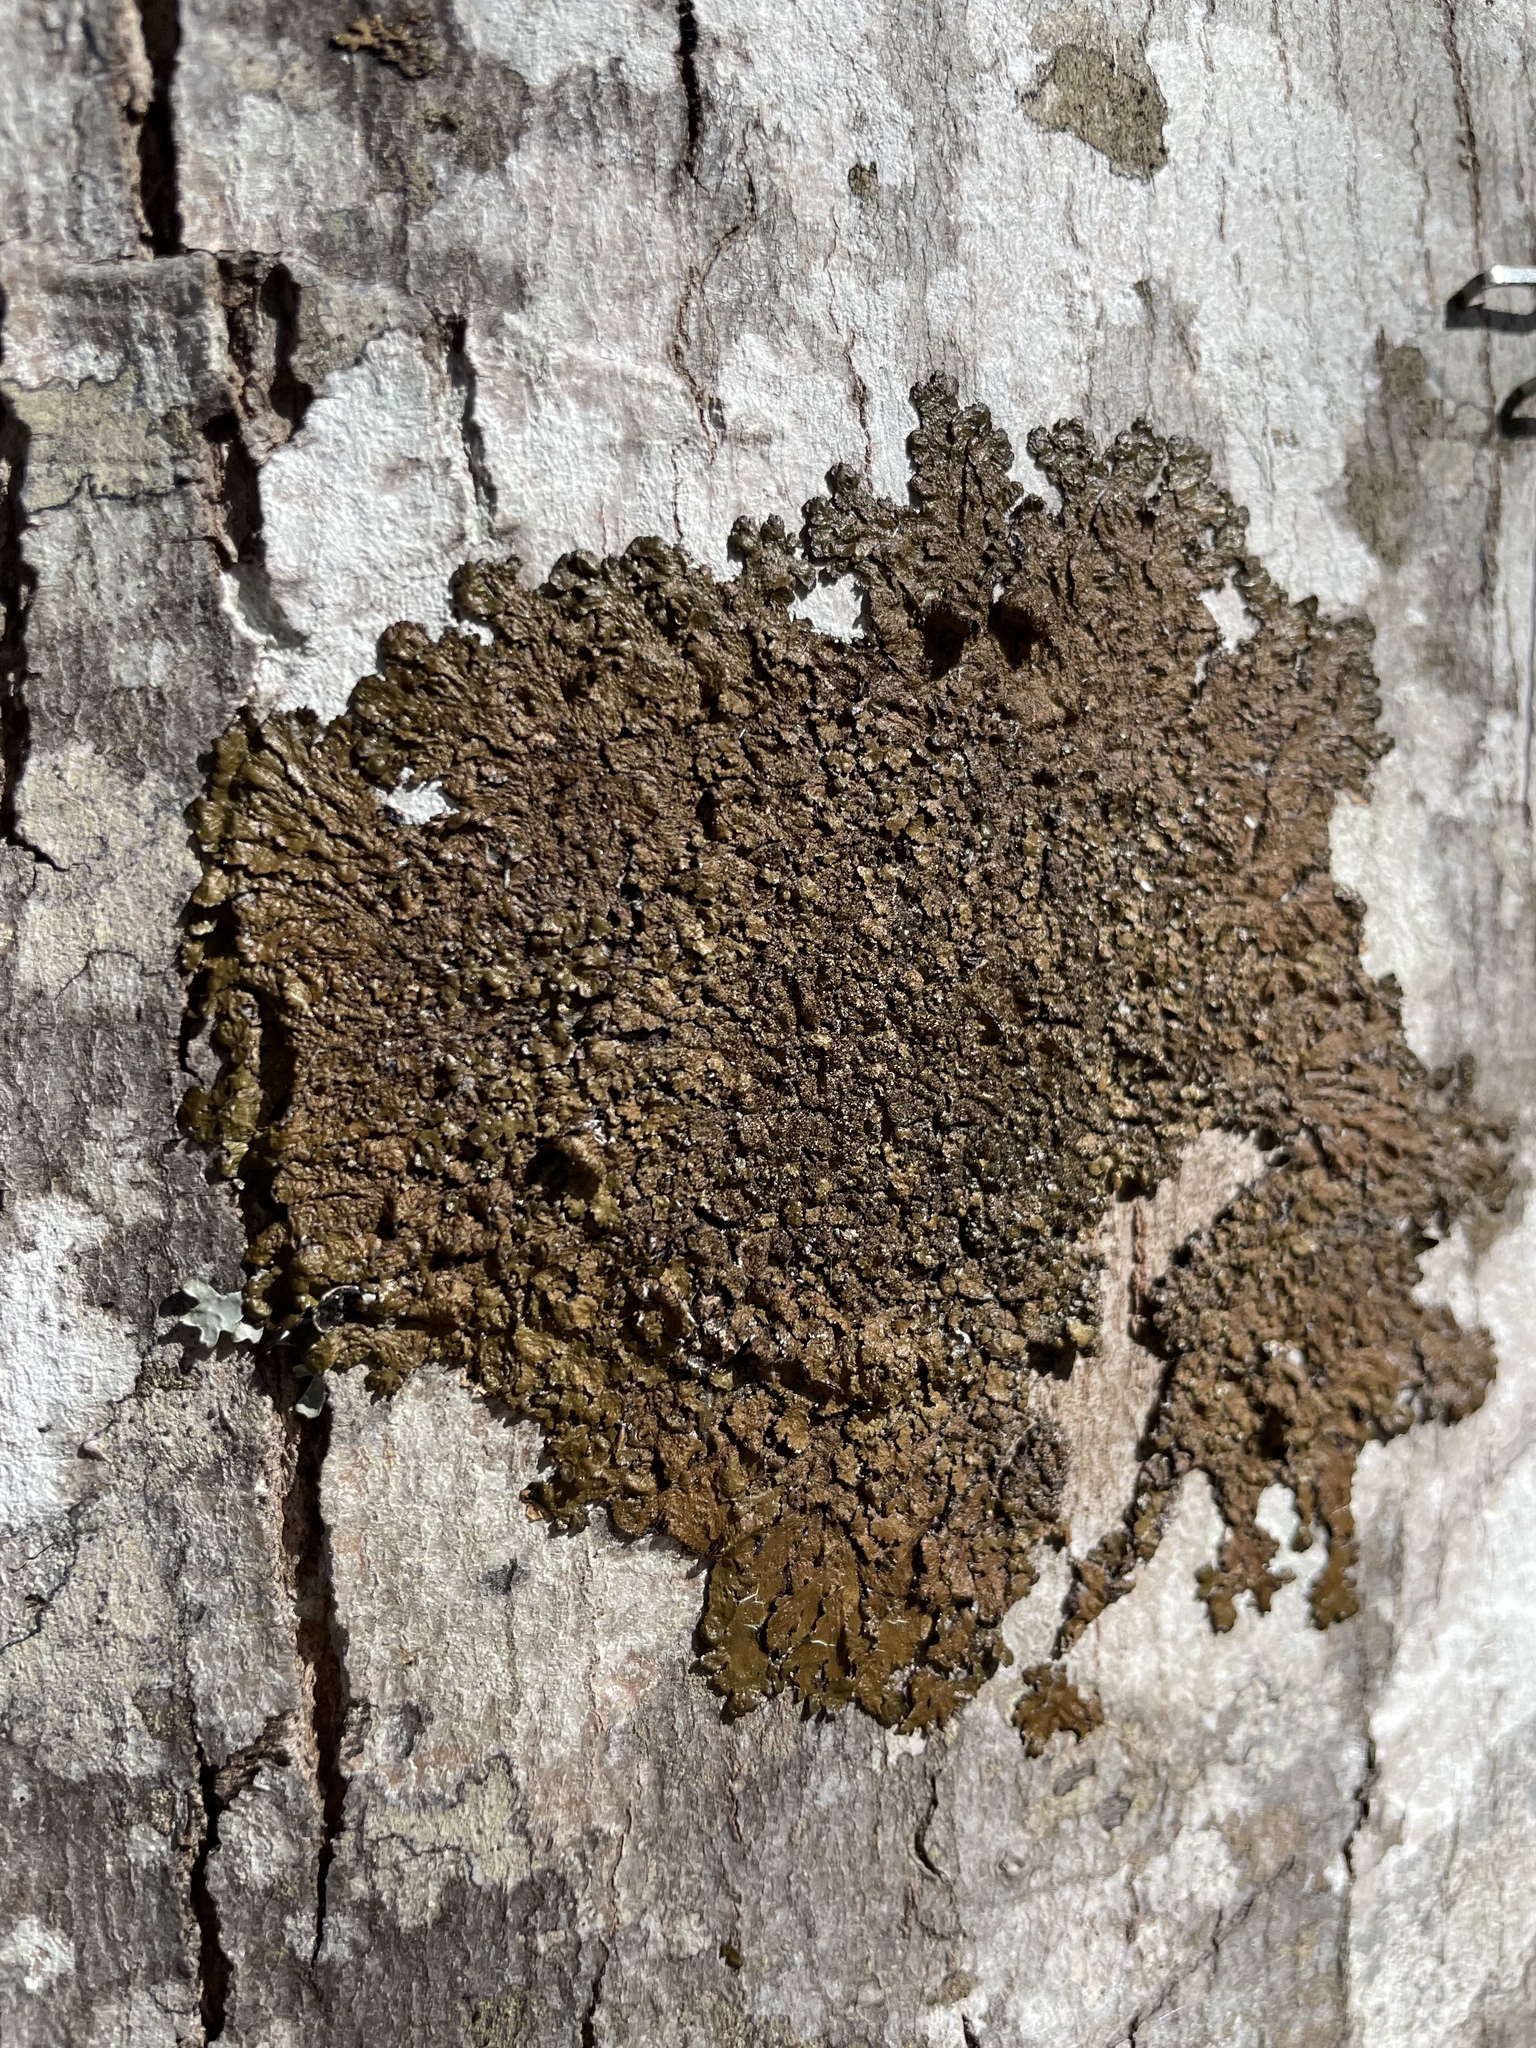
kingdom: Fungi
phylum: Ascomycota
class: Lecanoromycetes
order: Lecanorales
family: Parmeliaceae
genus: Melanelixia
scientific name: Melanelixia subaurifera
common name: Abraded camouflage lichen
